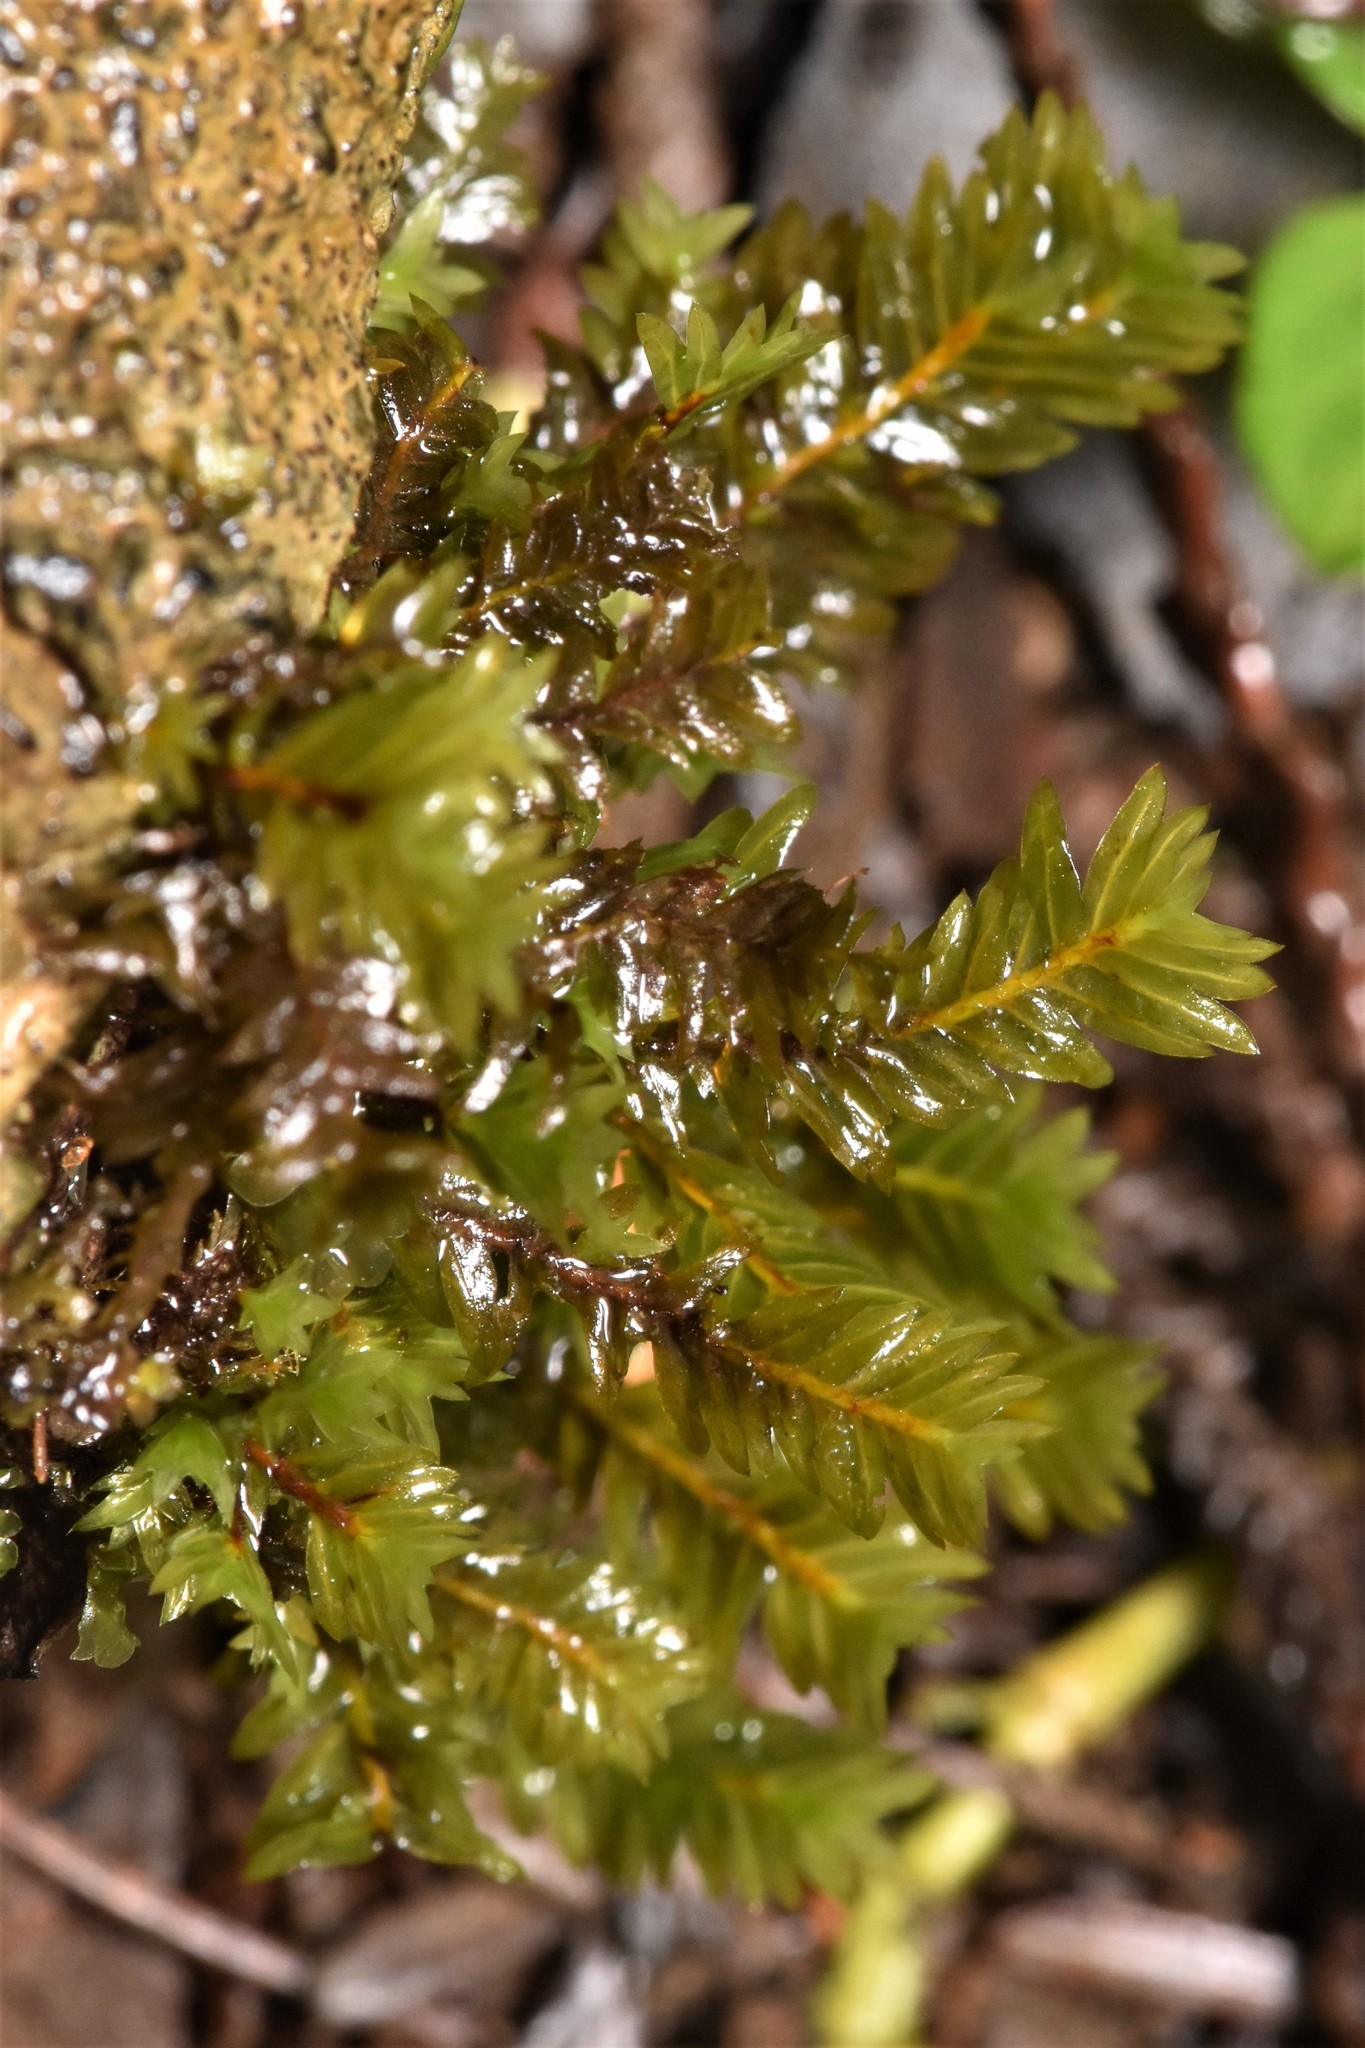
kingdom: Plantae
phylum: Bryophyta
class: Bryopsida
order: Dicranales
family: Fissidentaceae
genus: Fissidens
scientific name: Fissidens adianthoides
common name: Maidenhair pocket moss
